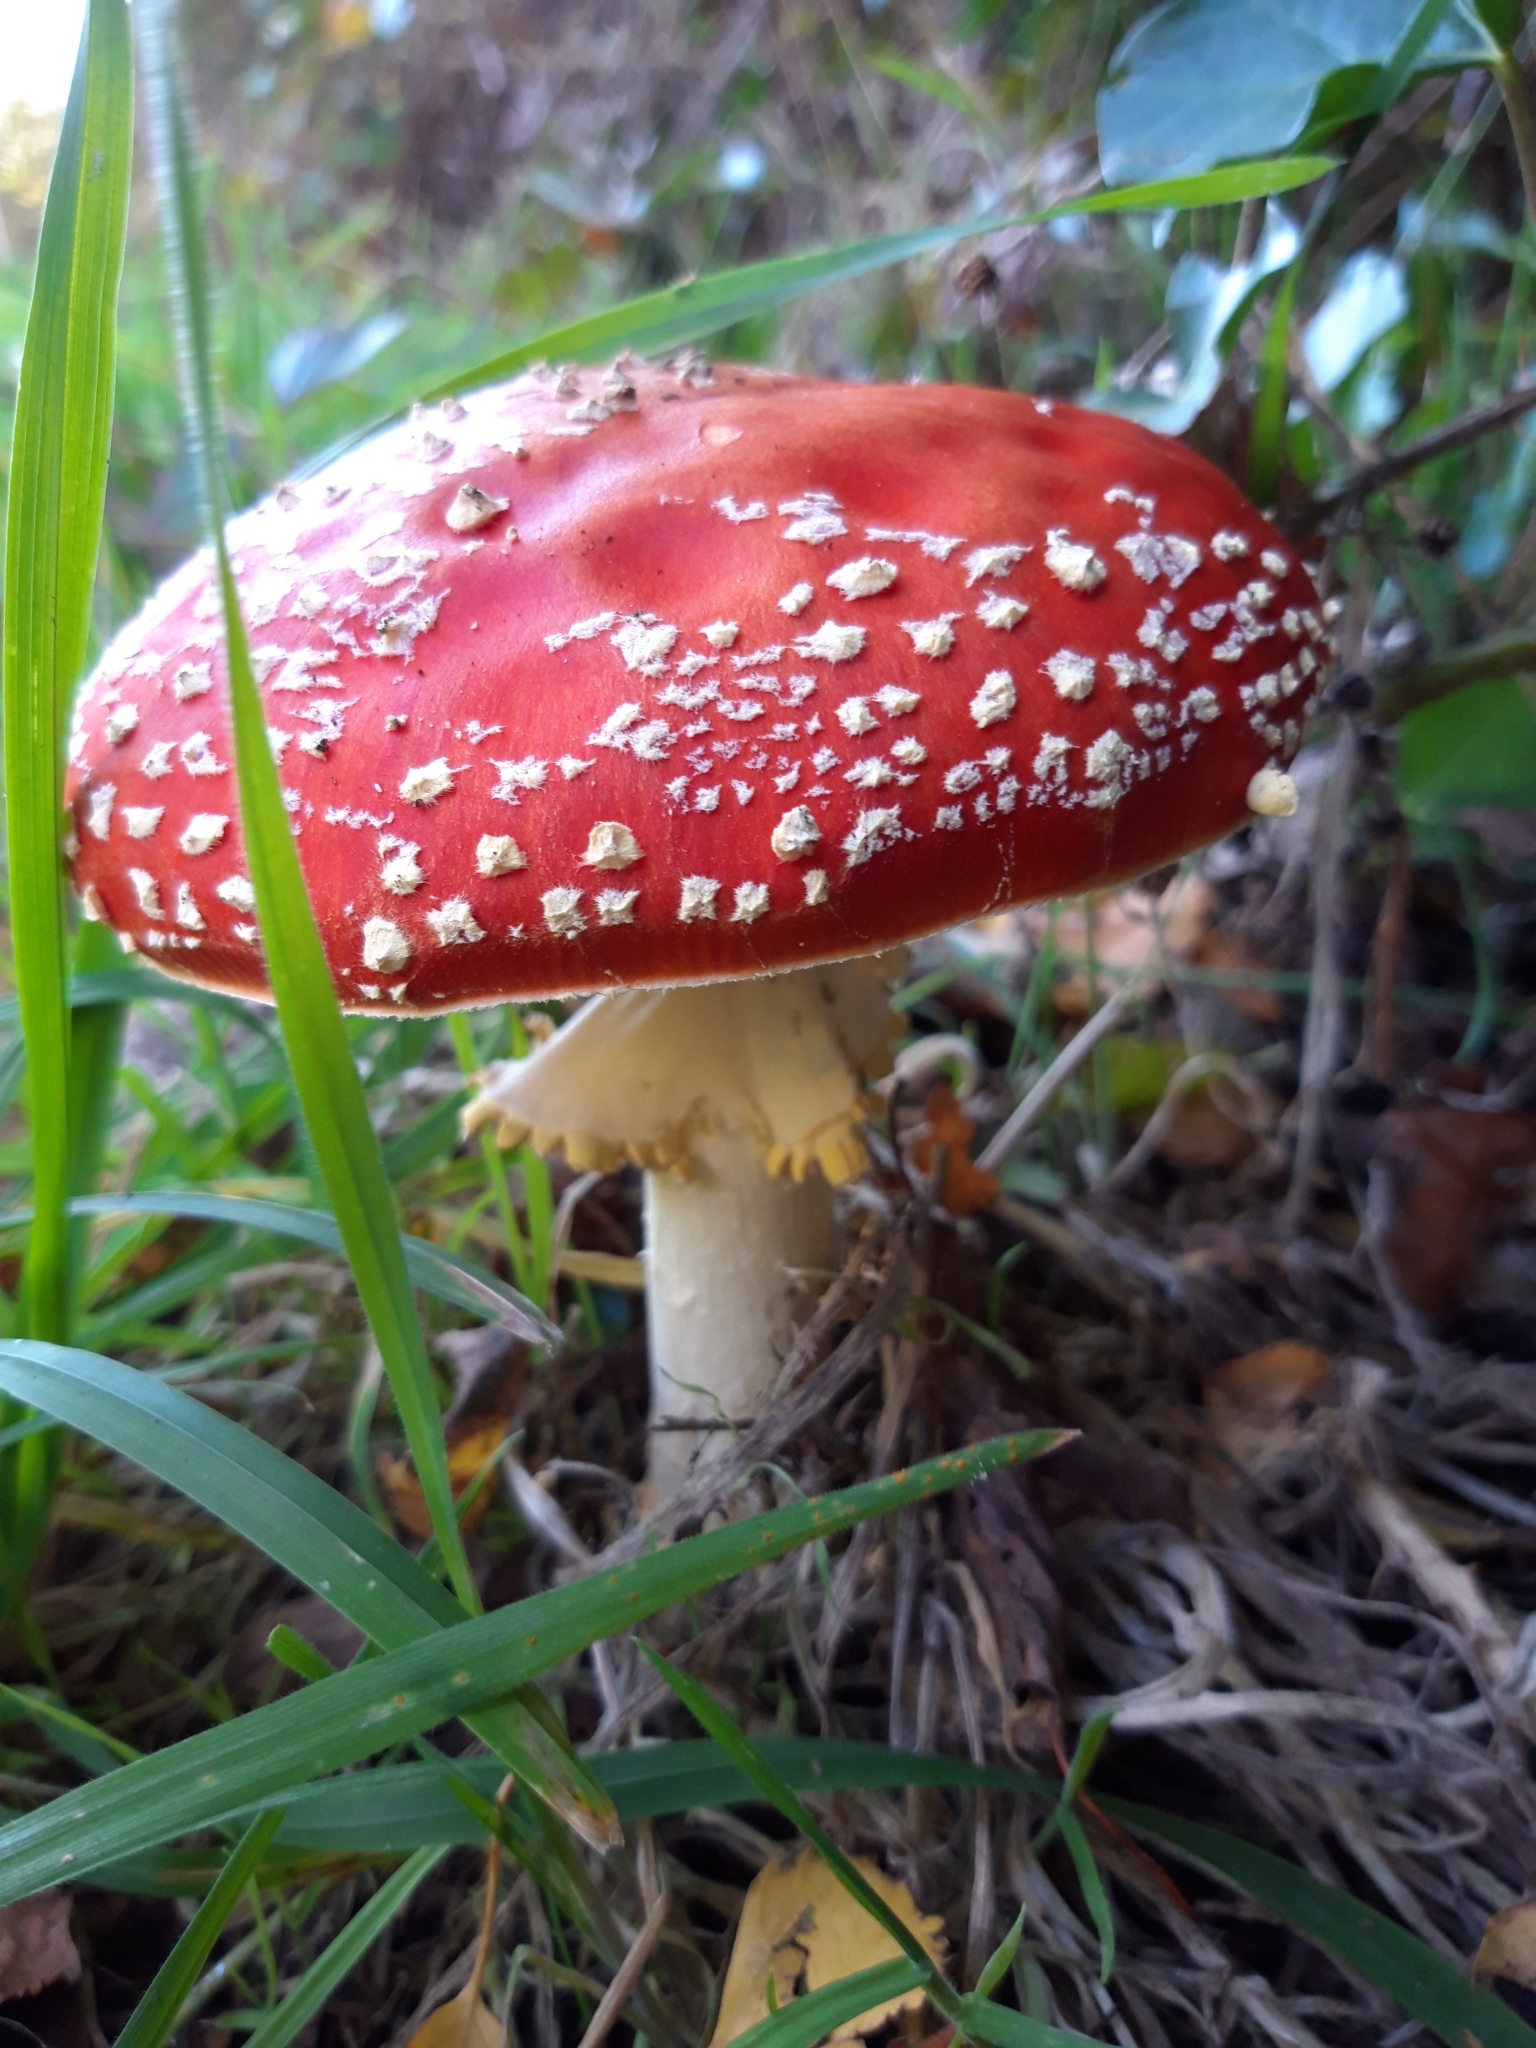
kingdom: Fungi
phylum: Basidiomycota
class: Agaricomycetes
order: Agaricales
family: Amanitaceae
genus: Amanita
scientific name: Amanita muscaria
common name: Fly agaric
